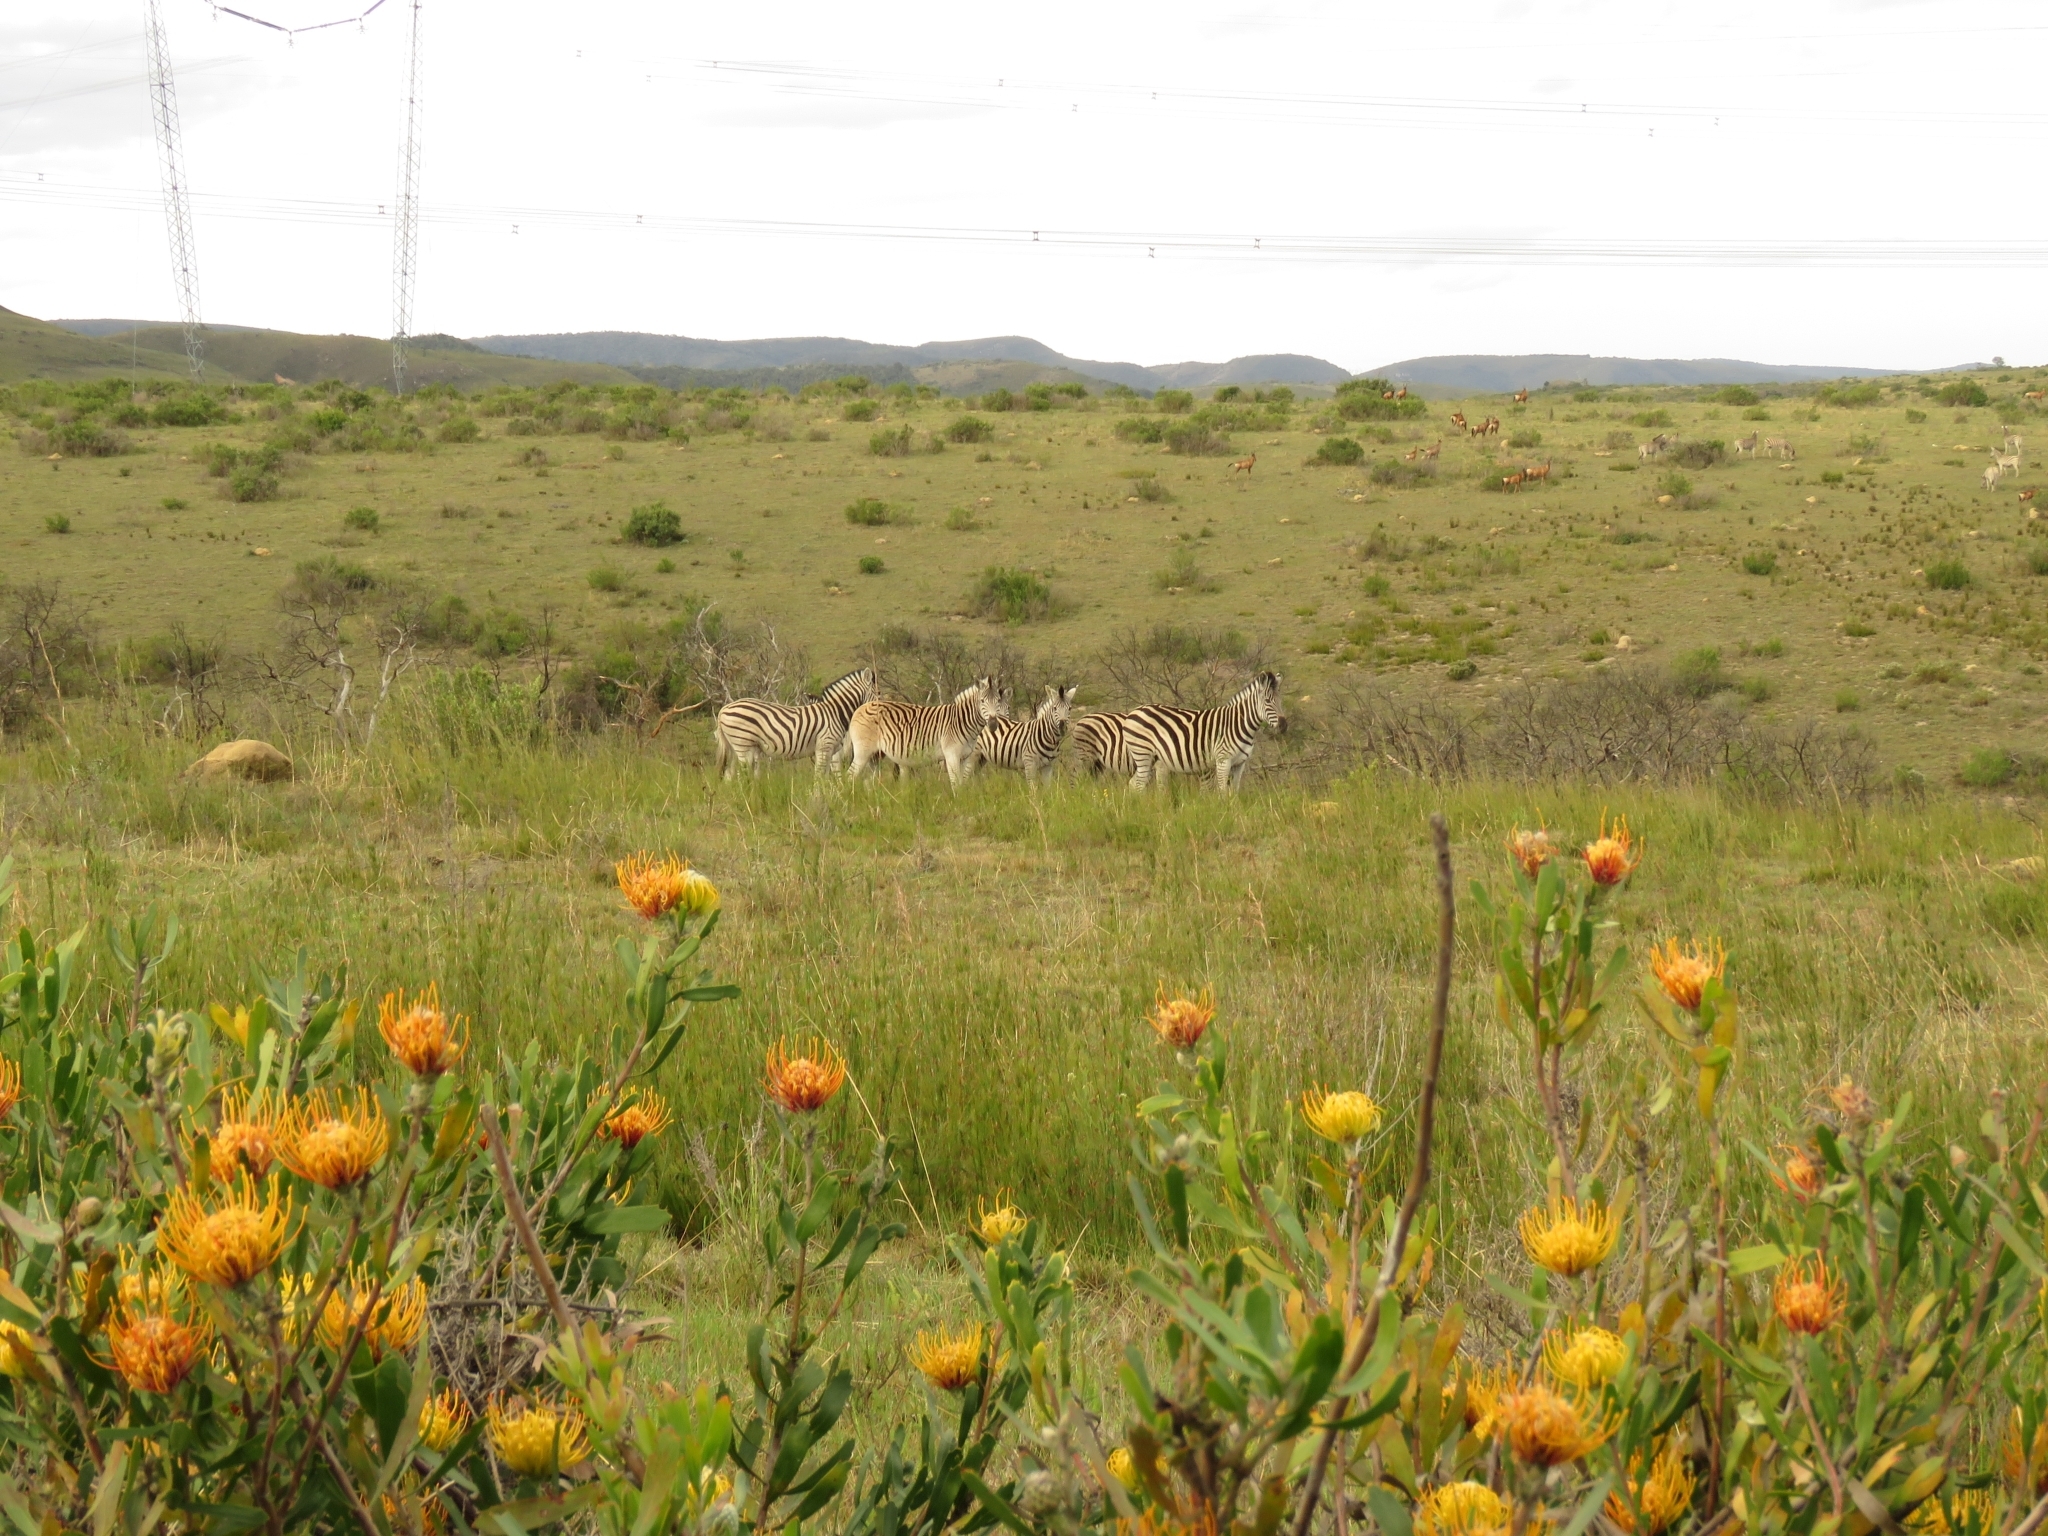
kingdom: Plantae
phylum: Tracheophyta
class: Magnoliopsida
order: Proteales
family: Proteaceae
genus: Leucospermum
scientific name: Leucospermum cuneiforme
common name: Common pincushion
